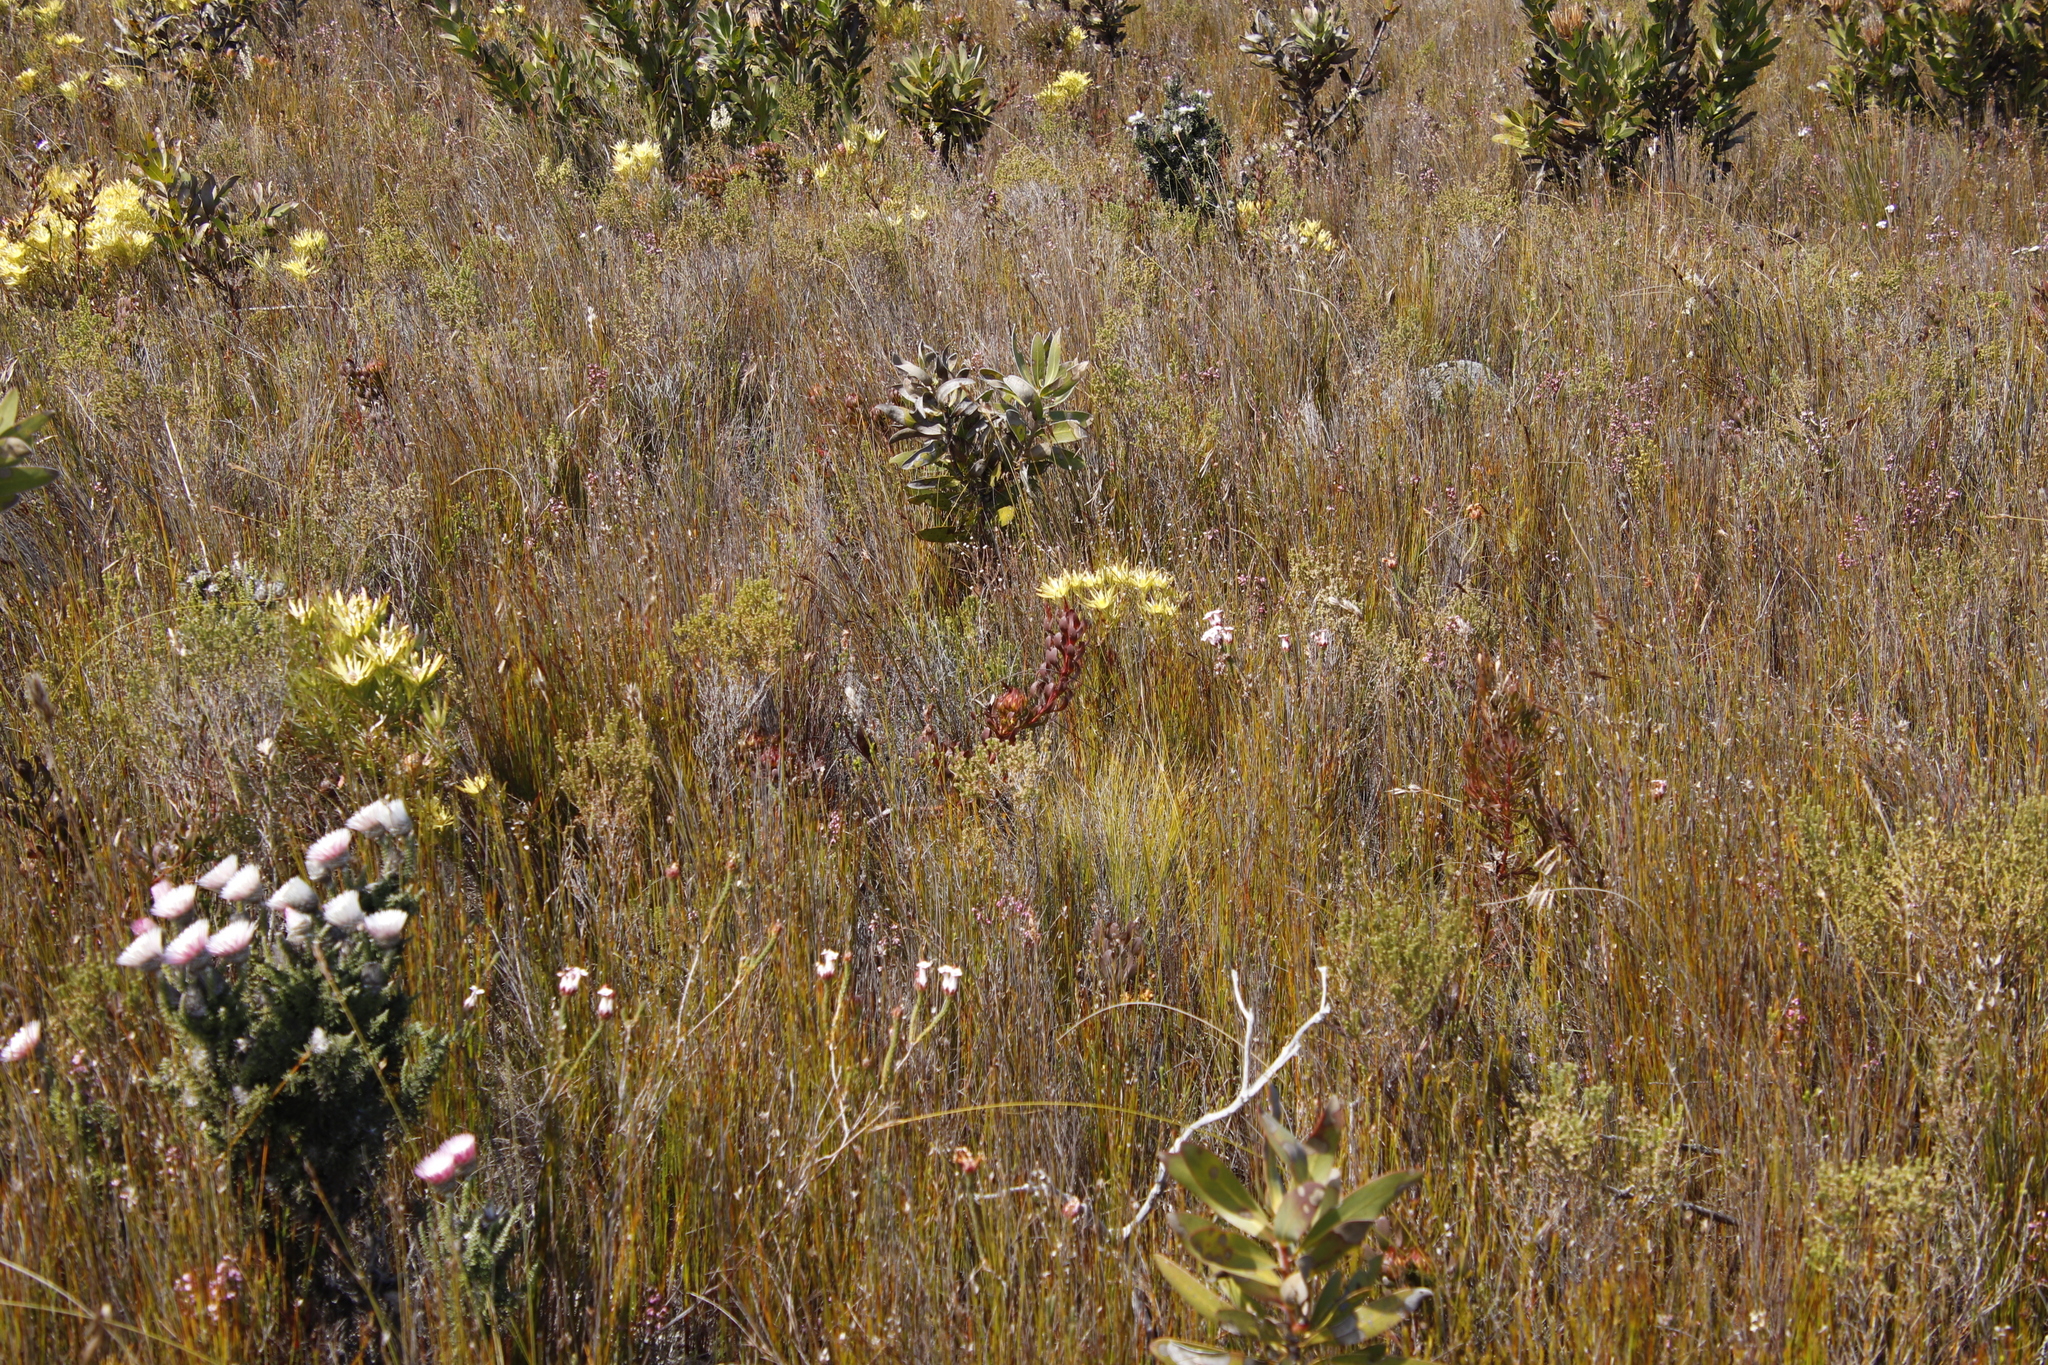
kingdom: Plantae
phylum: Tracheophyta
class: Magnoliopsida
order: Proteales
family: Proteaceae
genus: Aulax
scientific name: Aulax umbellata
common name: Broad-leaf featherbush
